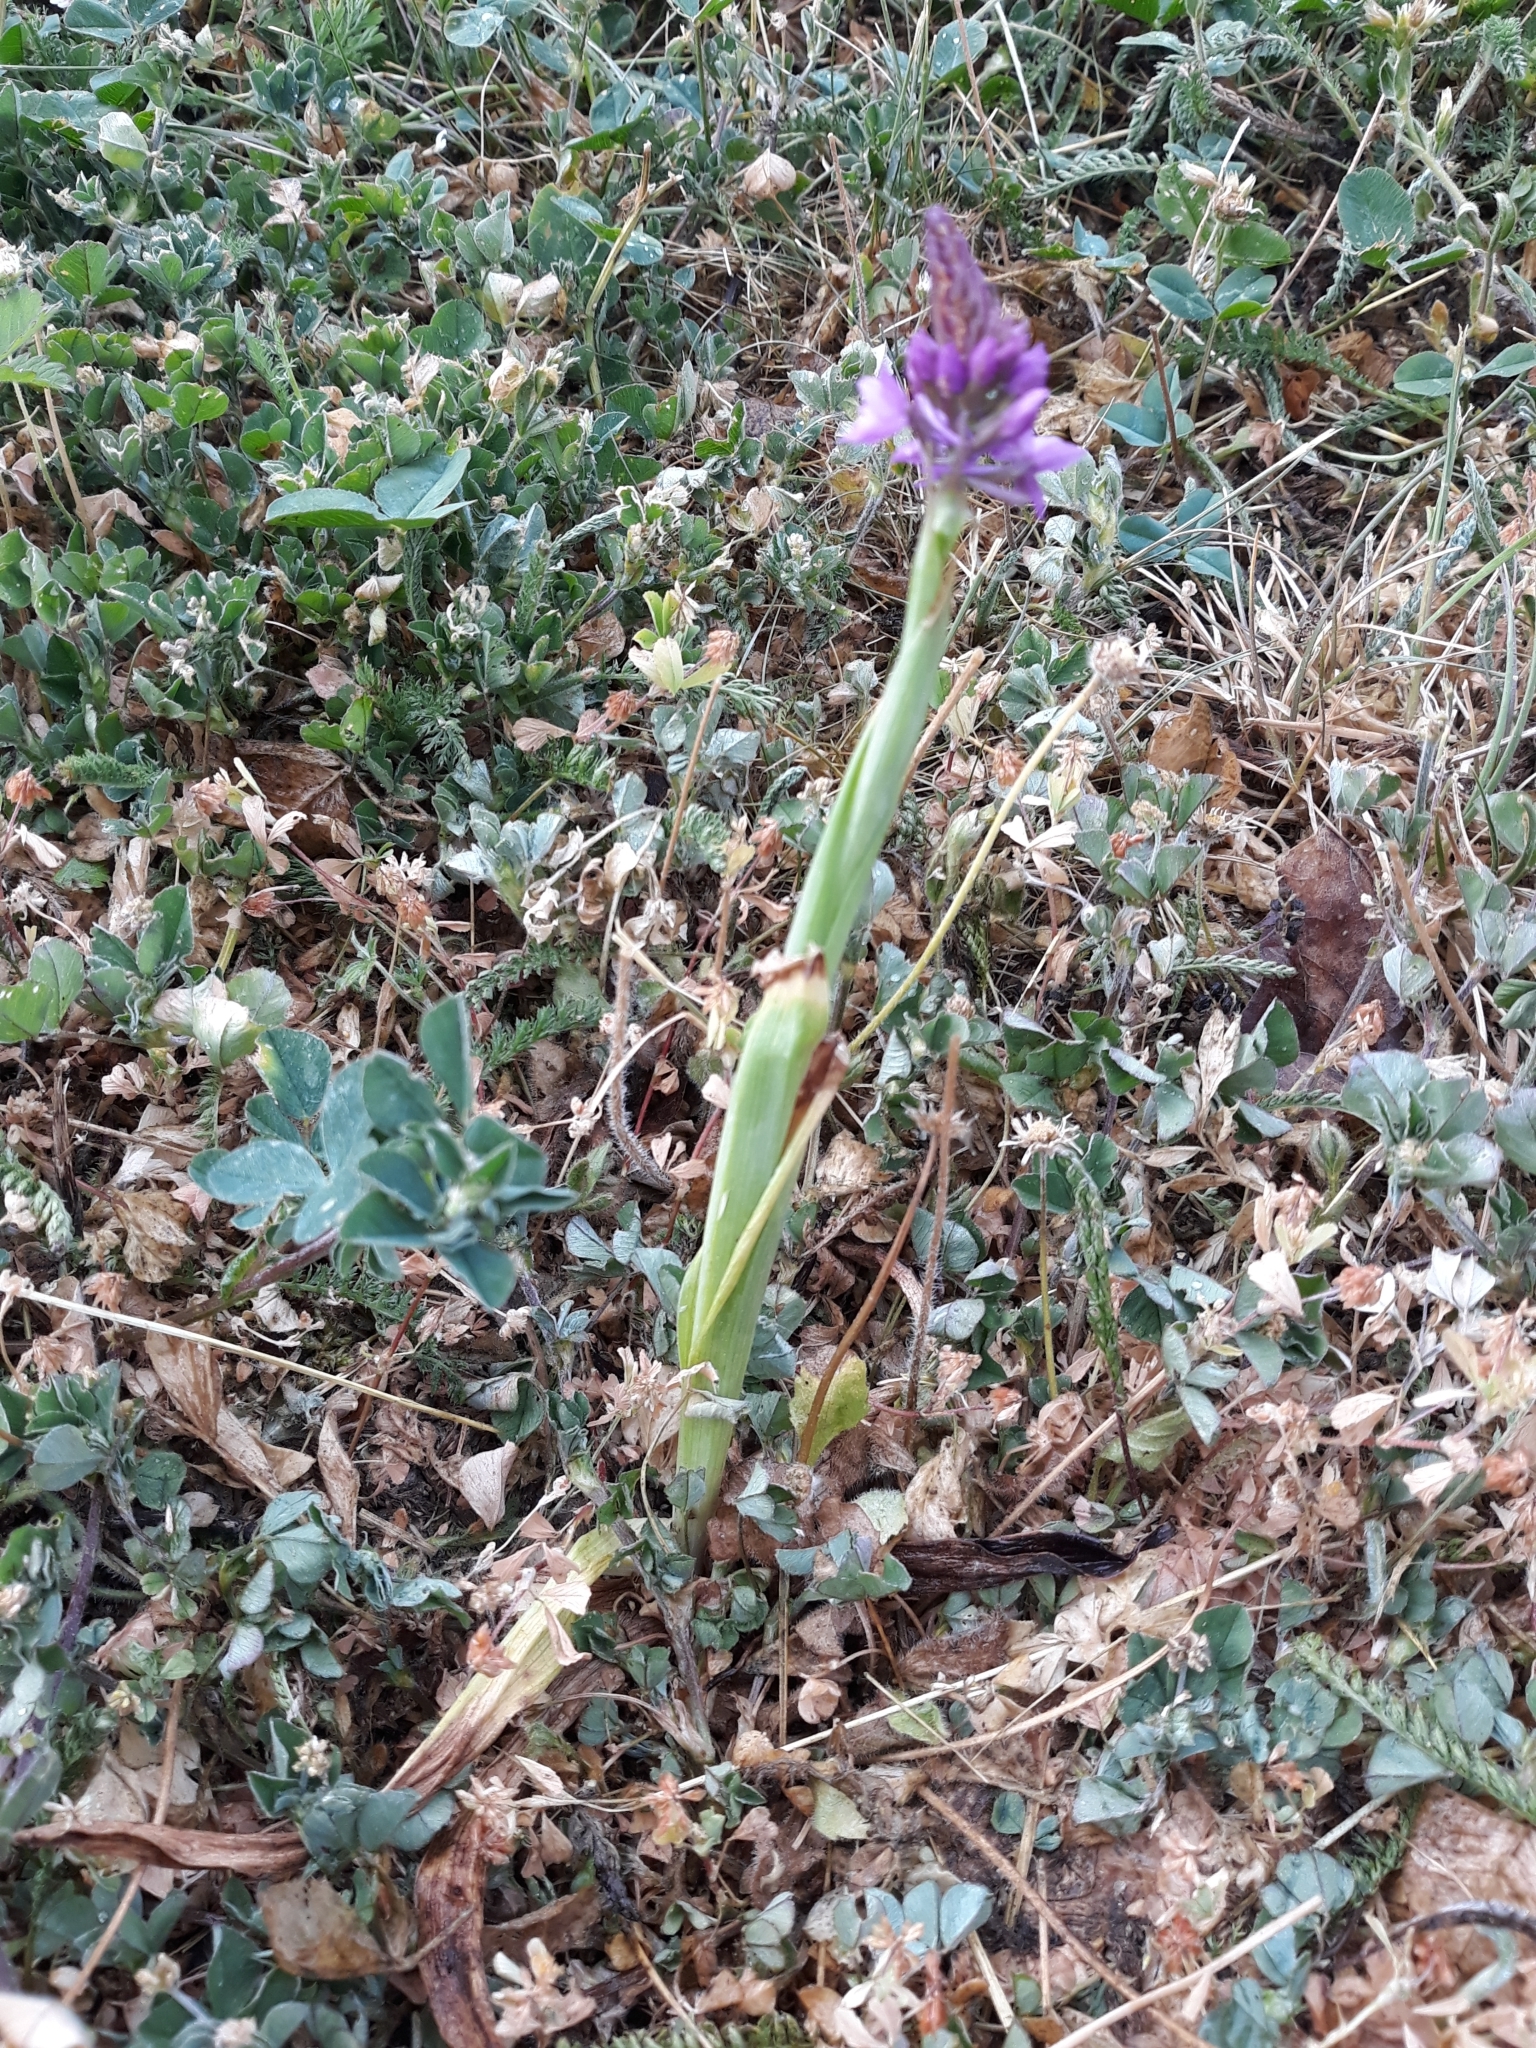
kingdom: Plantae
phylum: Tracheophyta
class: Liliopsida
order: Asparagales
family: Orchidaceae
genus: Anacamptis
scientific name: Anacamptis pyramidalis
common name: Pyramidal orchid
